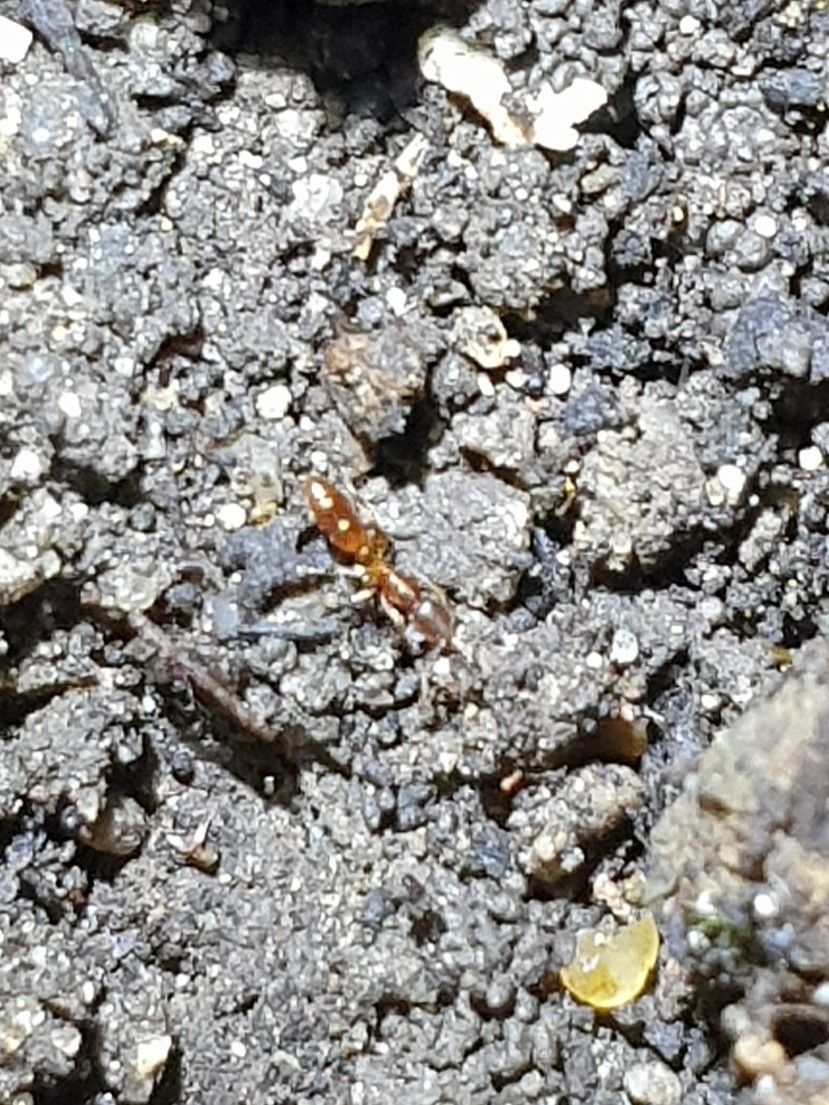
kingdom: Animalia
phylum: Arthropoda
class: Insecta
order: Hymenoptera
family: Formicidae
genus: Ponera
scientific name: Ponera coarctata
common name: Indolent ant
